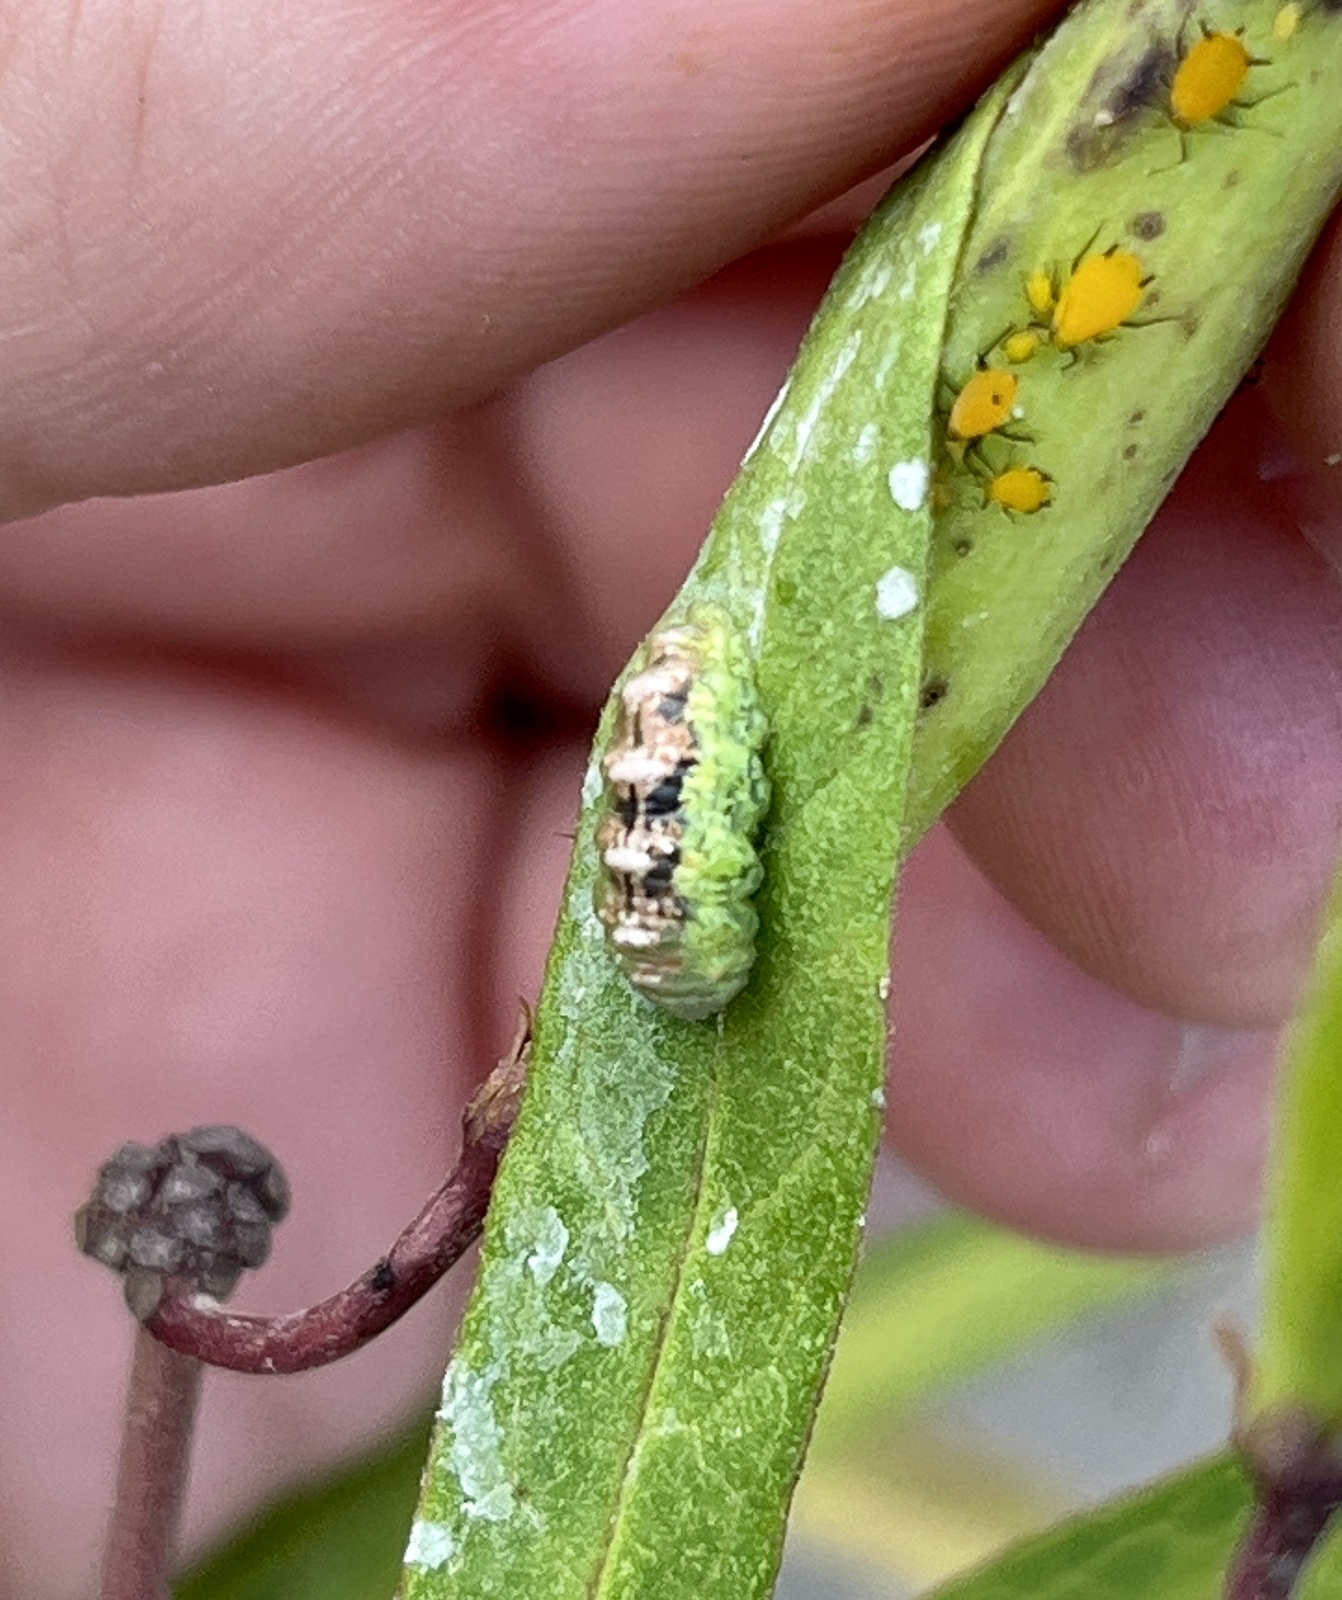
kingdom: Animalia
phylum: Arthropoda
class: Insecta
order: Diptera
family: Syrphidae
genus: Eupeodes
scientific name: Eupeodes pomus
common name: Short-tailed aphideater
